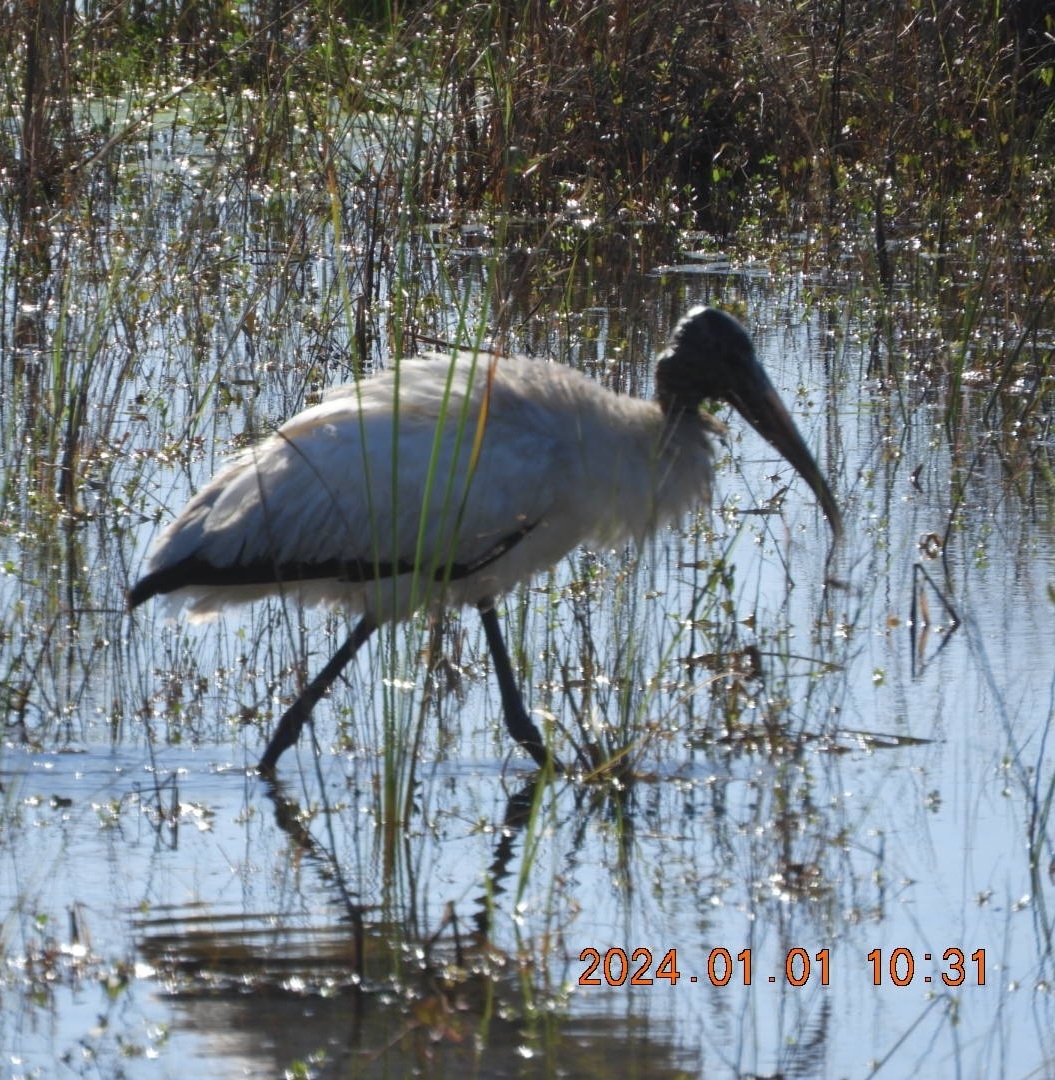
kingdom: Animalia
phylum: Chordata
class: Aves
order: Ciconiiformes
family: Ciconiidae
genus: Mycteria
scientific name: Mycteria americana
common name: Wood stork
